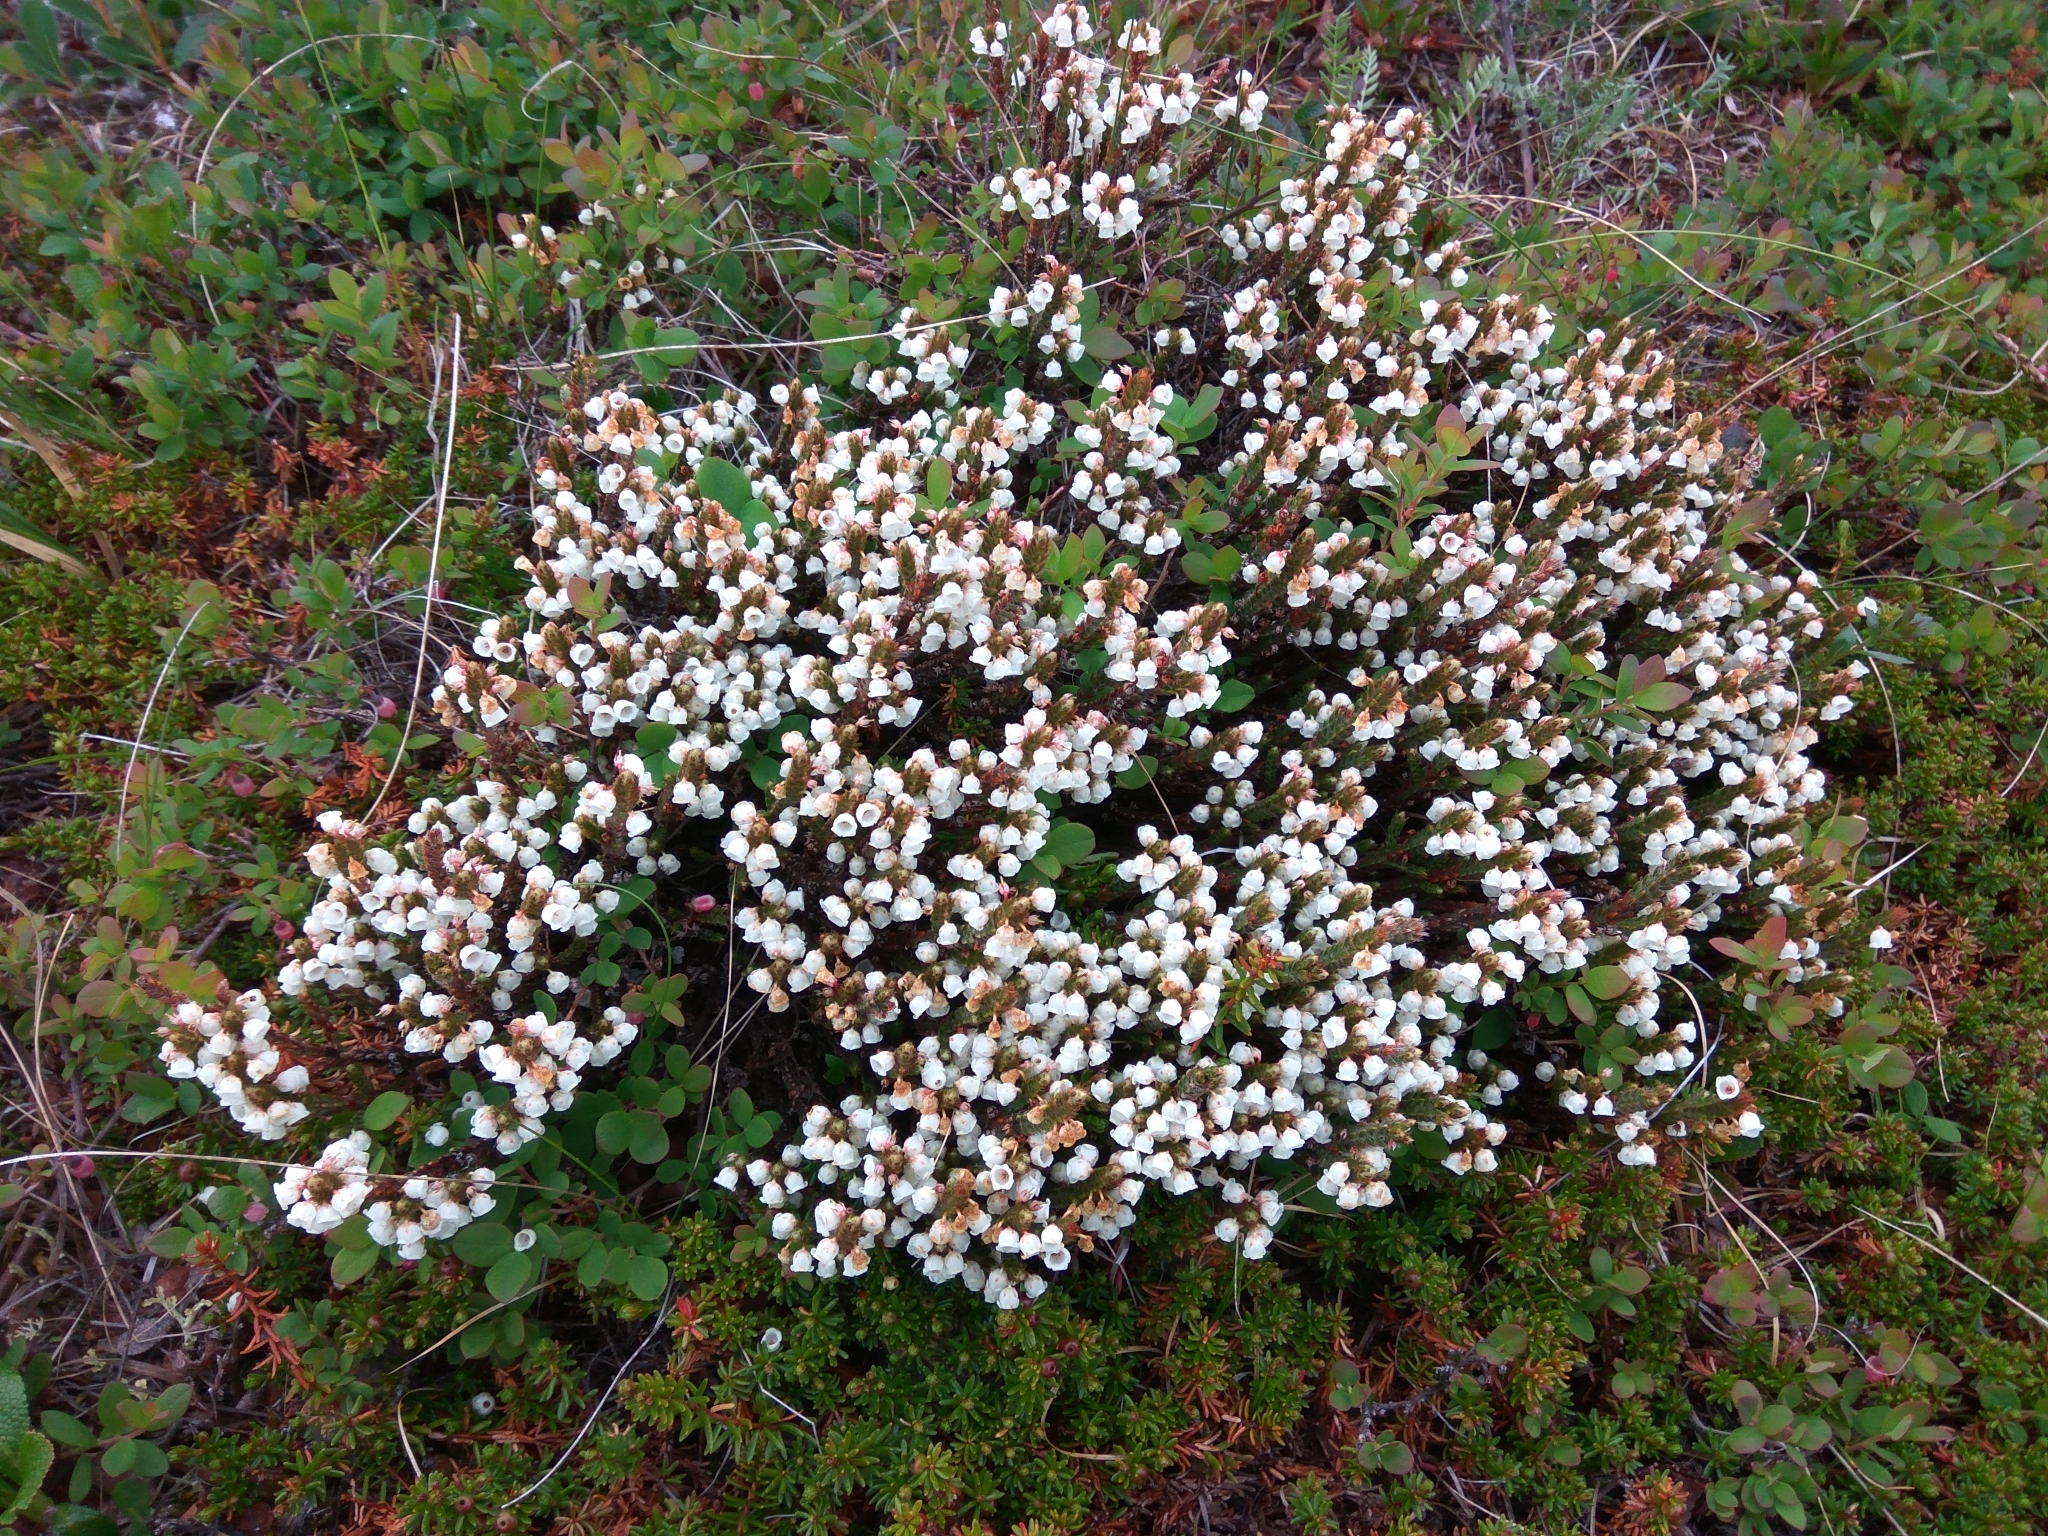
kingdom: Plantae
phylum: Tracheophyta
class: Magnoliopsida
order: Ericales
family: Ericaceae
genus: Cassiope
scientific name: Cassiope tetragona
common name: Arctic bell heather
